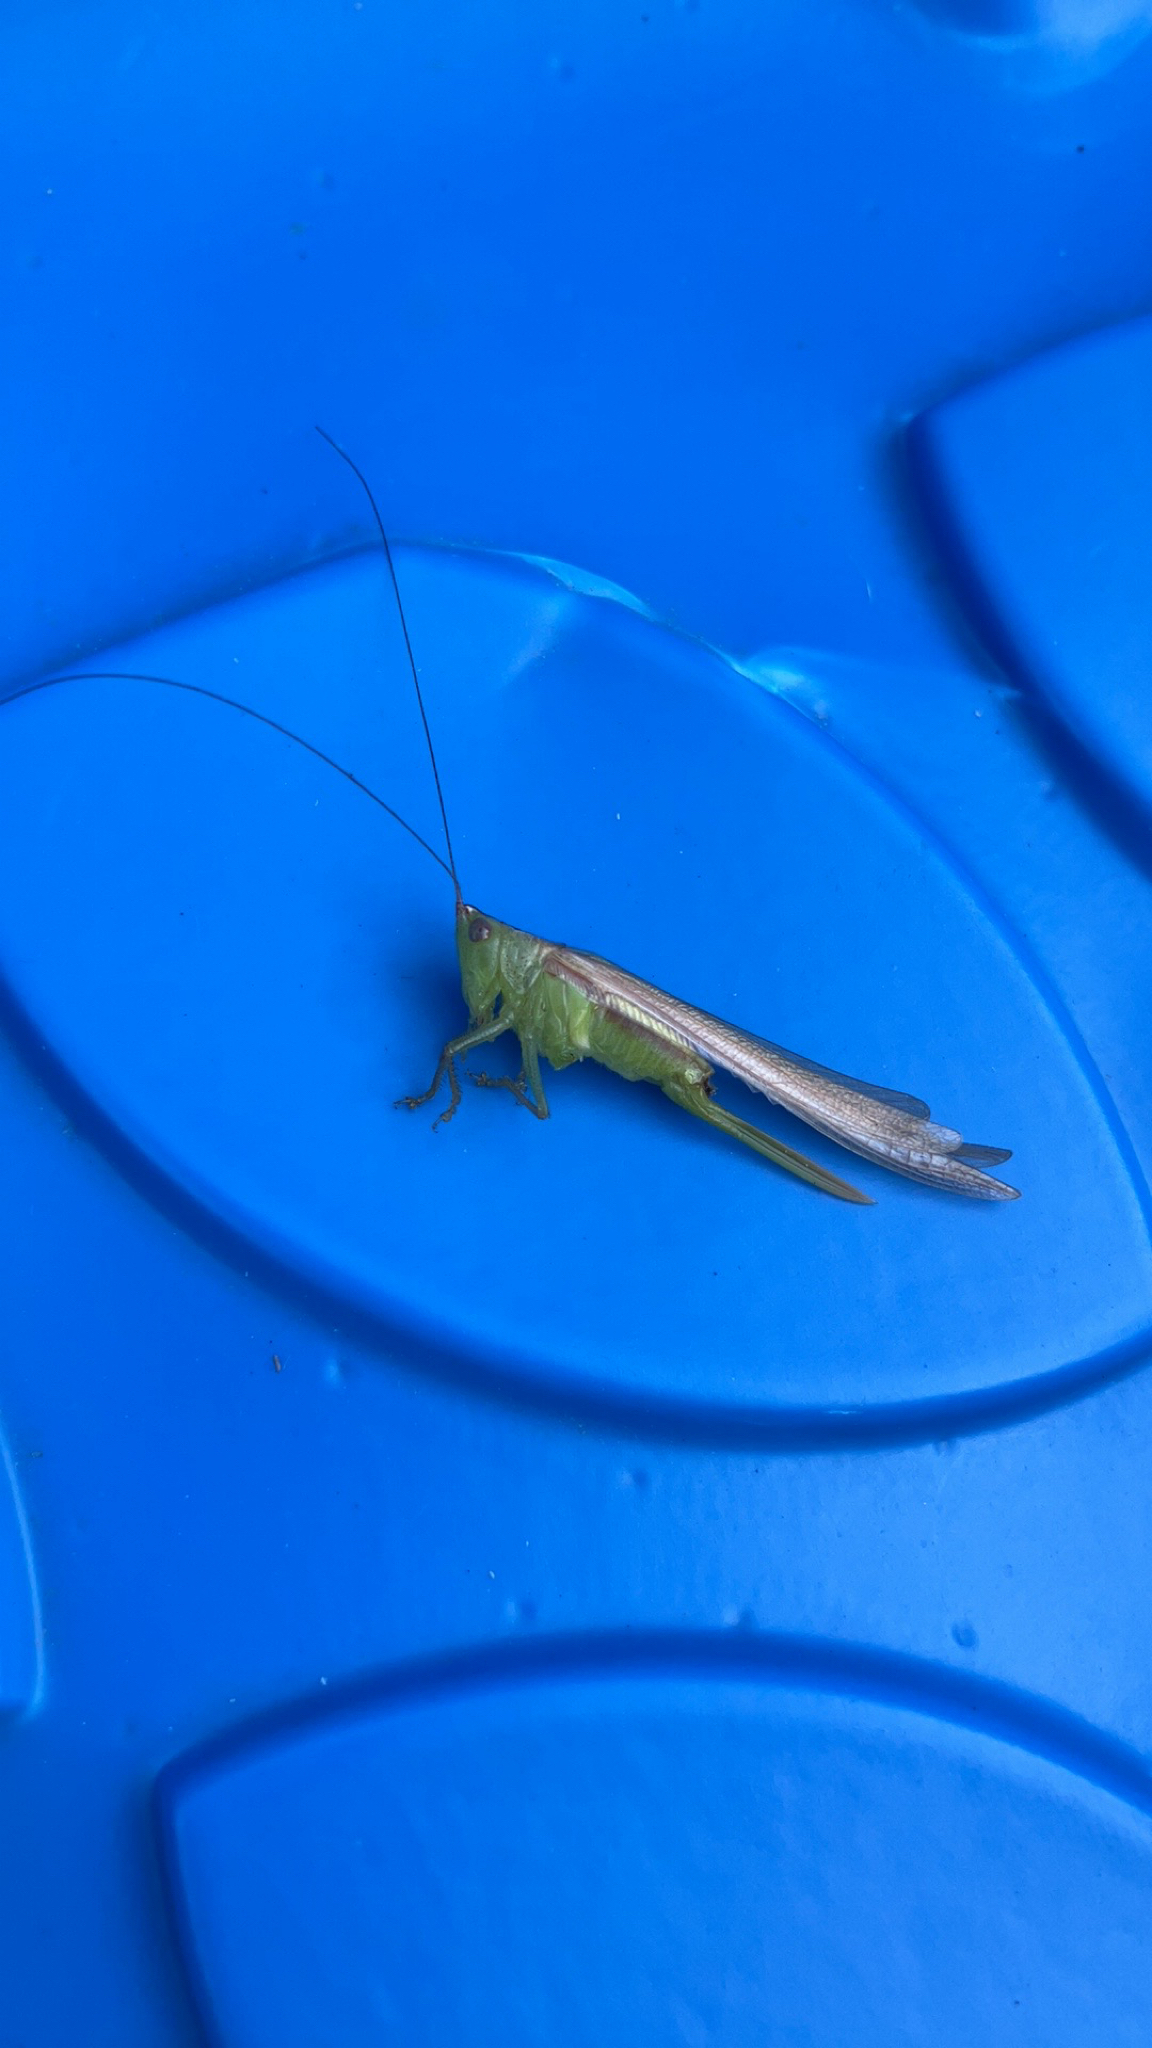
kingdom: Animalia
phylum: Arthropoda
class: Insecta
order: Orthoptera
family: Tettigoniidae
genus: Conocephalus
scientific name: Conocephalus fasciatus
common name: Slender meadow katydid
